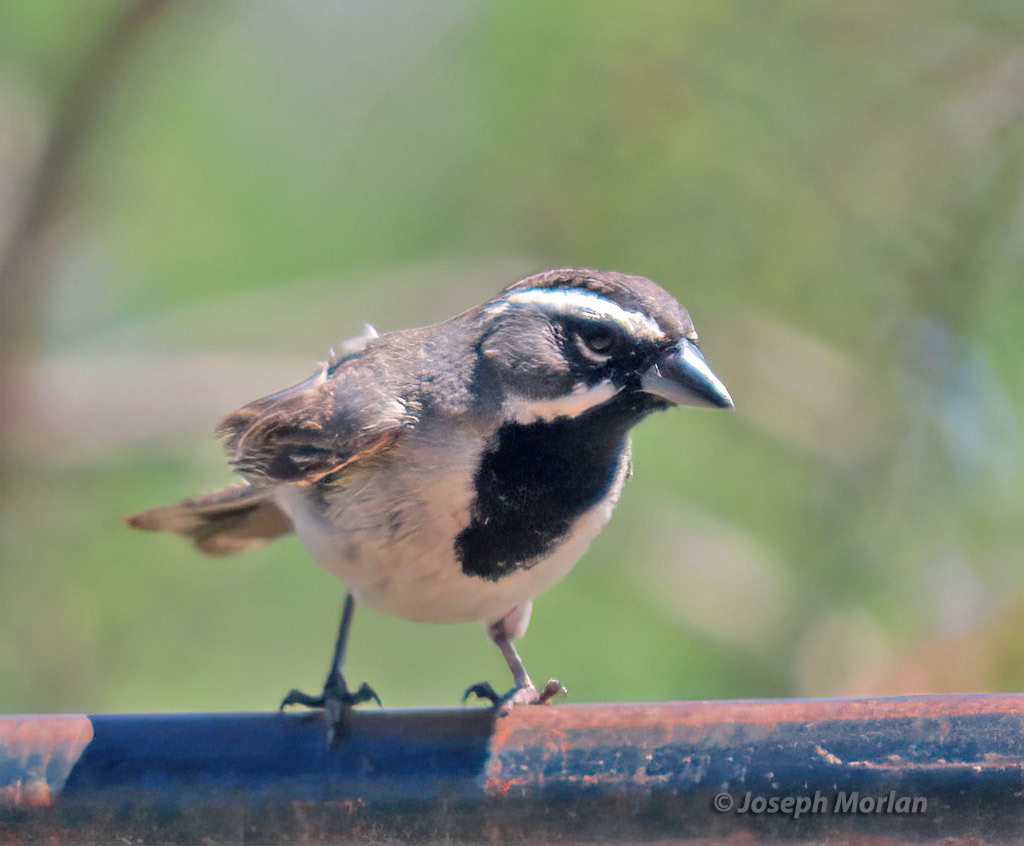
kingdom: Animalia
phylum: Chordata
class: Aves
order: Passeriformes
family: Passerellidae
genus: Amphispiza
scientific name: Amphispiza bilineata
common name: Black-throated sparrow
